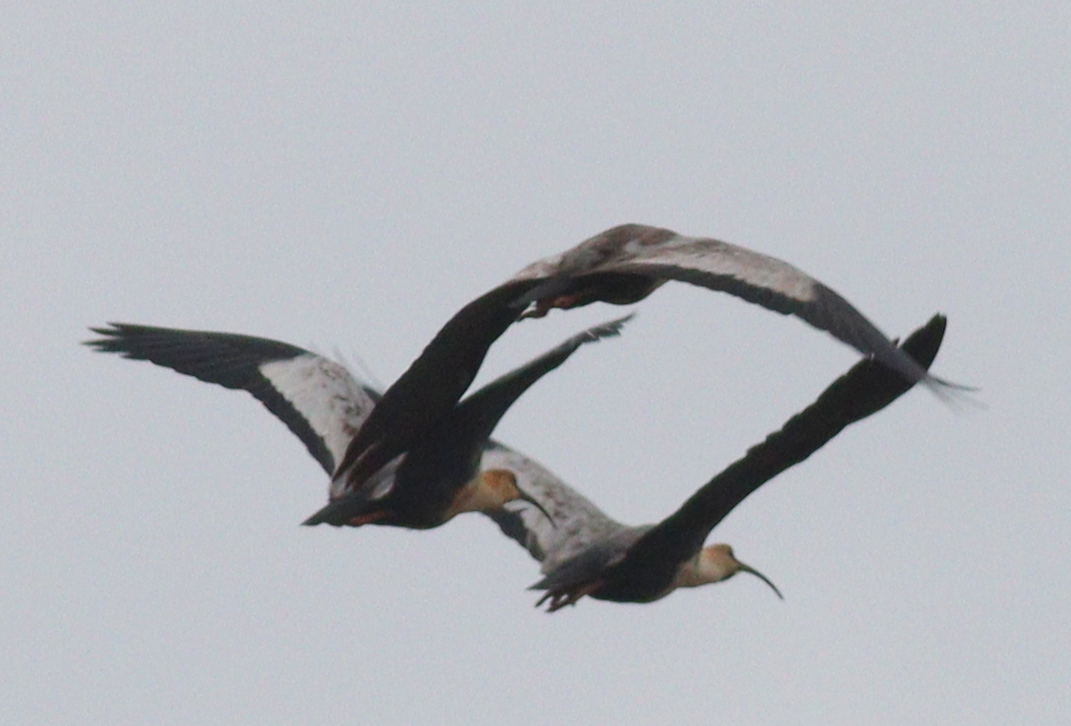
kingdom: Animalia
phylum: Chordata
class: Aves
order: Pelecaniformes
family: Threskiornithidae
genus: Theristicus
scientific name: Theristicus melanopis
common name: Black-faced ibis
